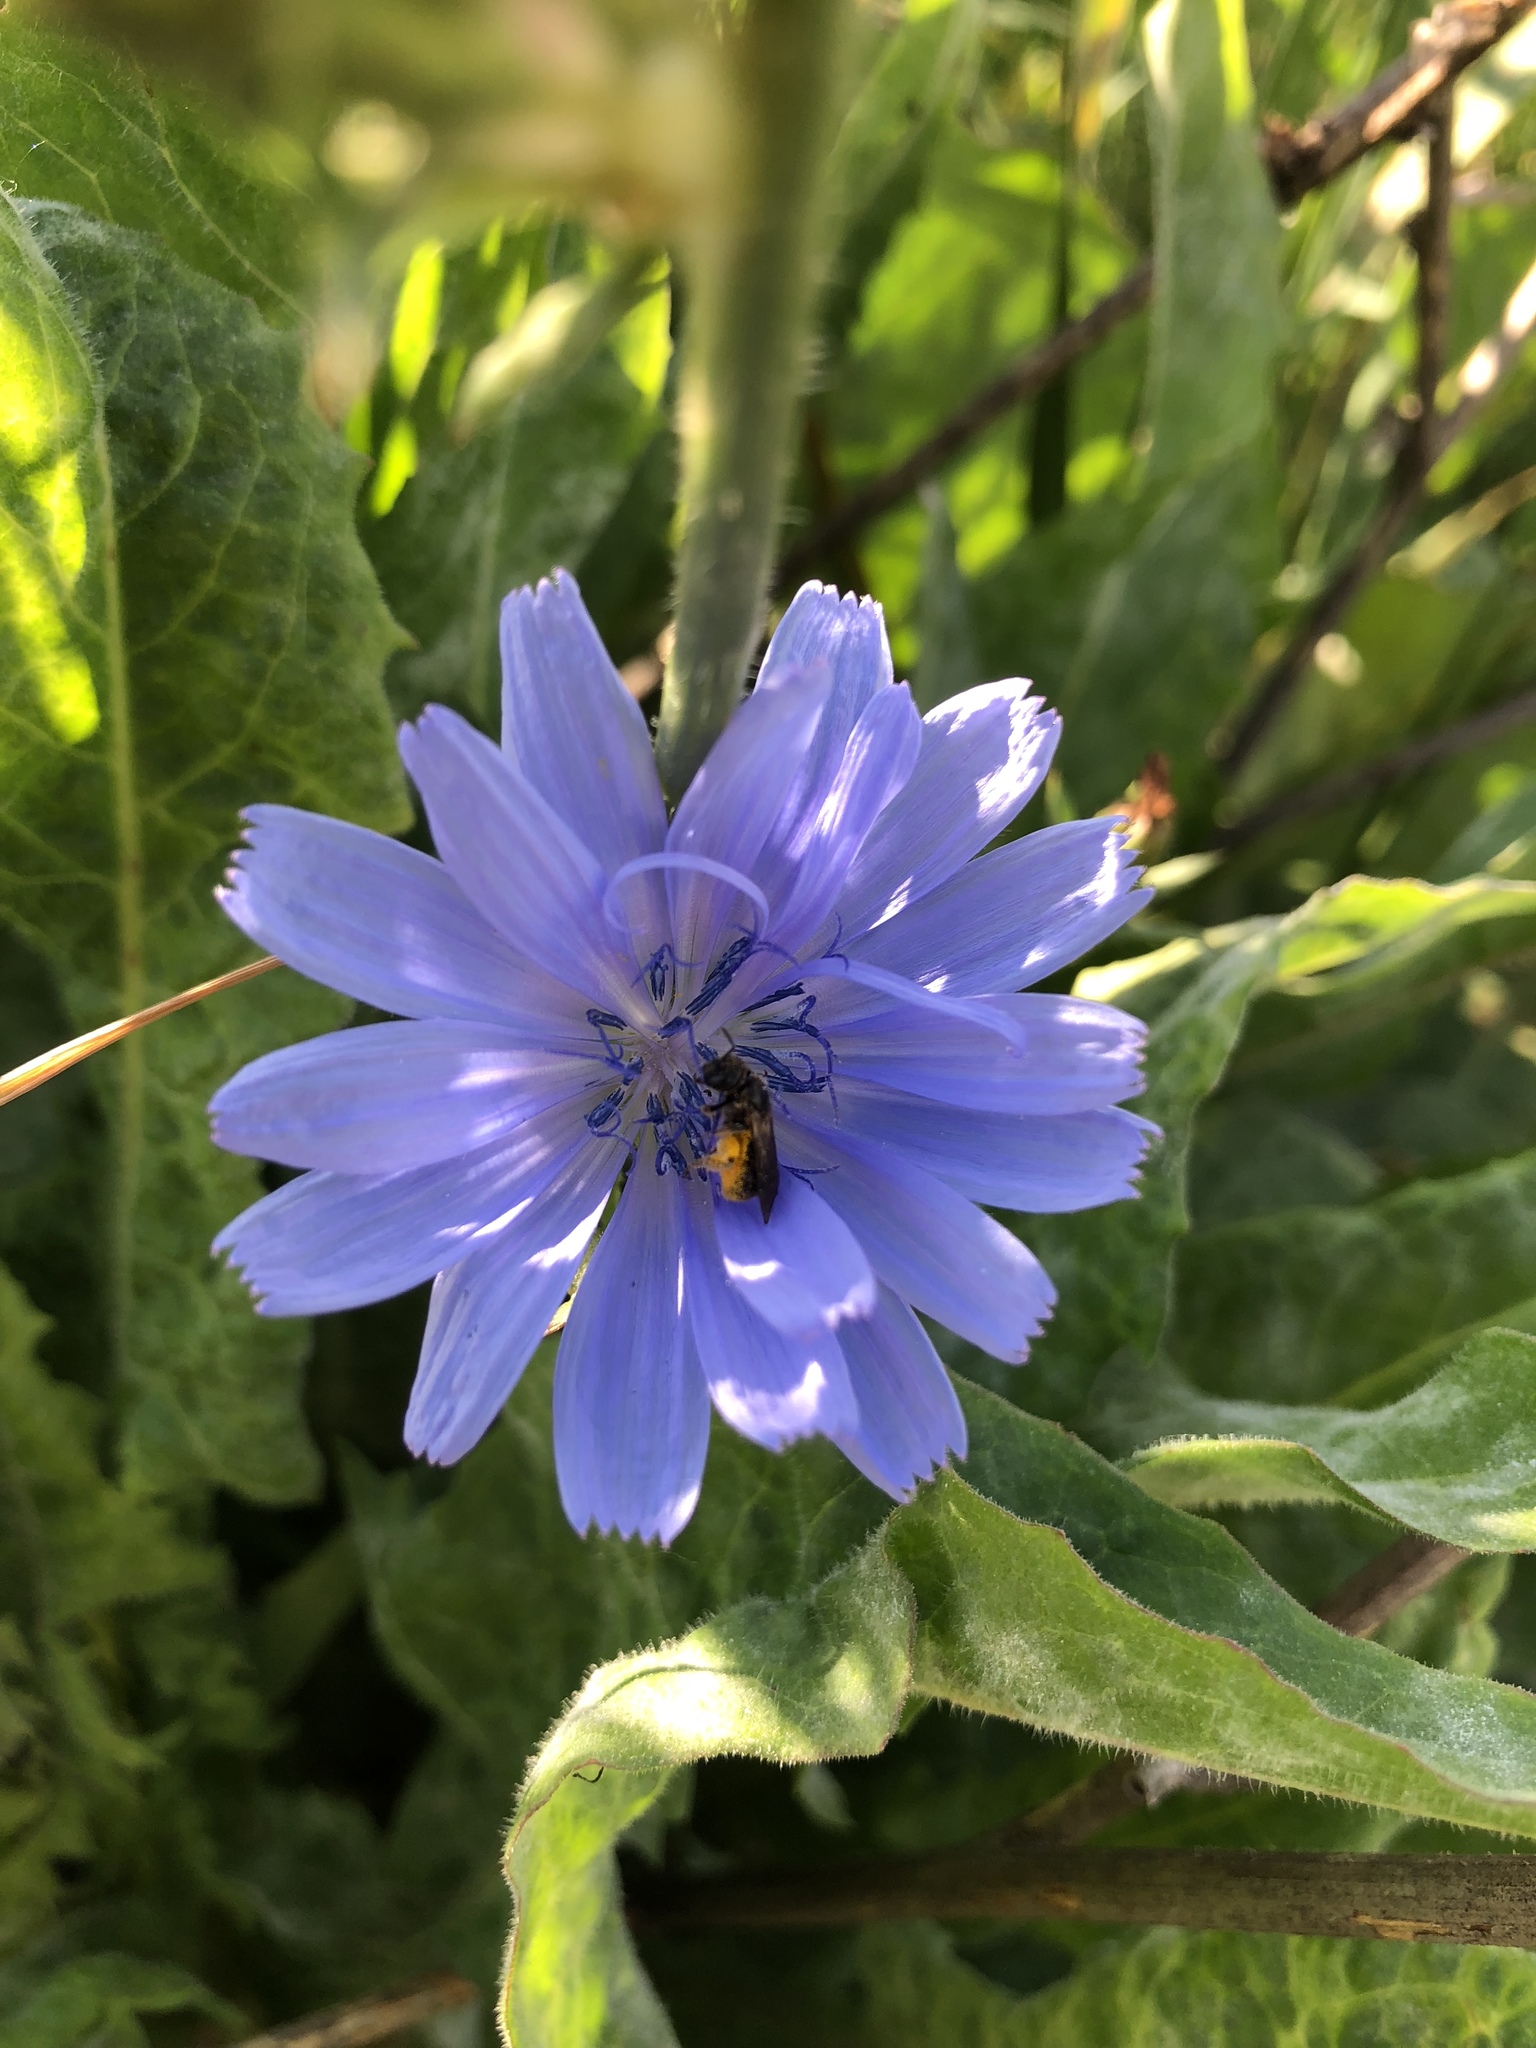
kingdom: Plantae
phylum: Tracheophyta
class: Magnoliopsida
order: Asterales
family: Asteraceae
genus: Cichorium
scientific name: Cichorium intybus
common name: Chicory
